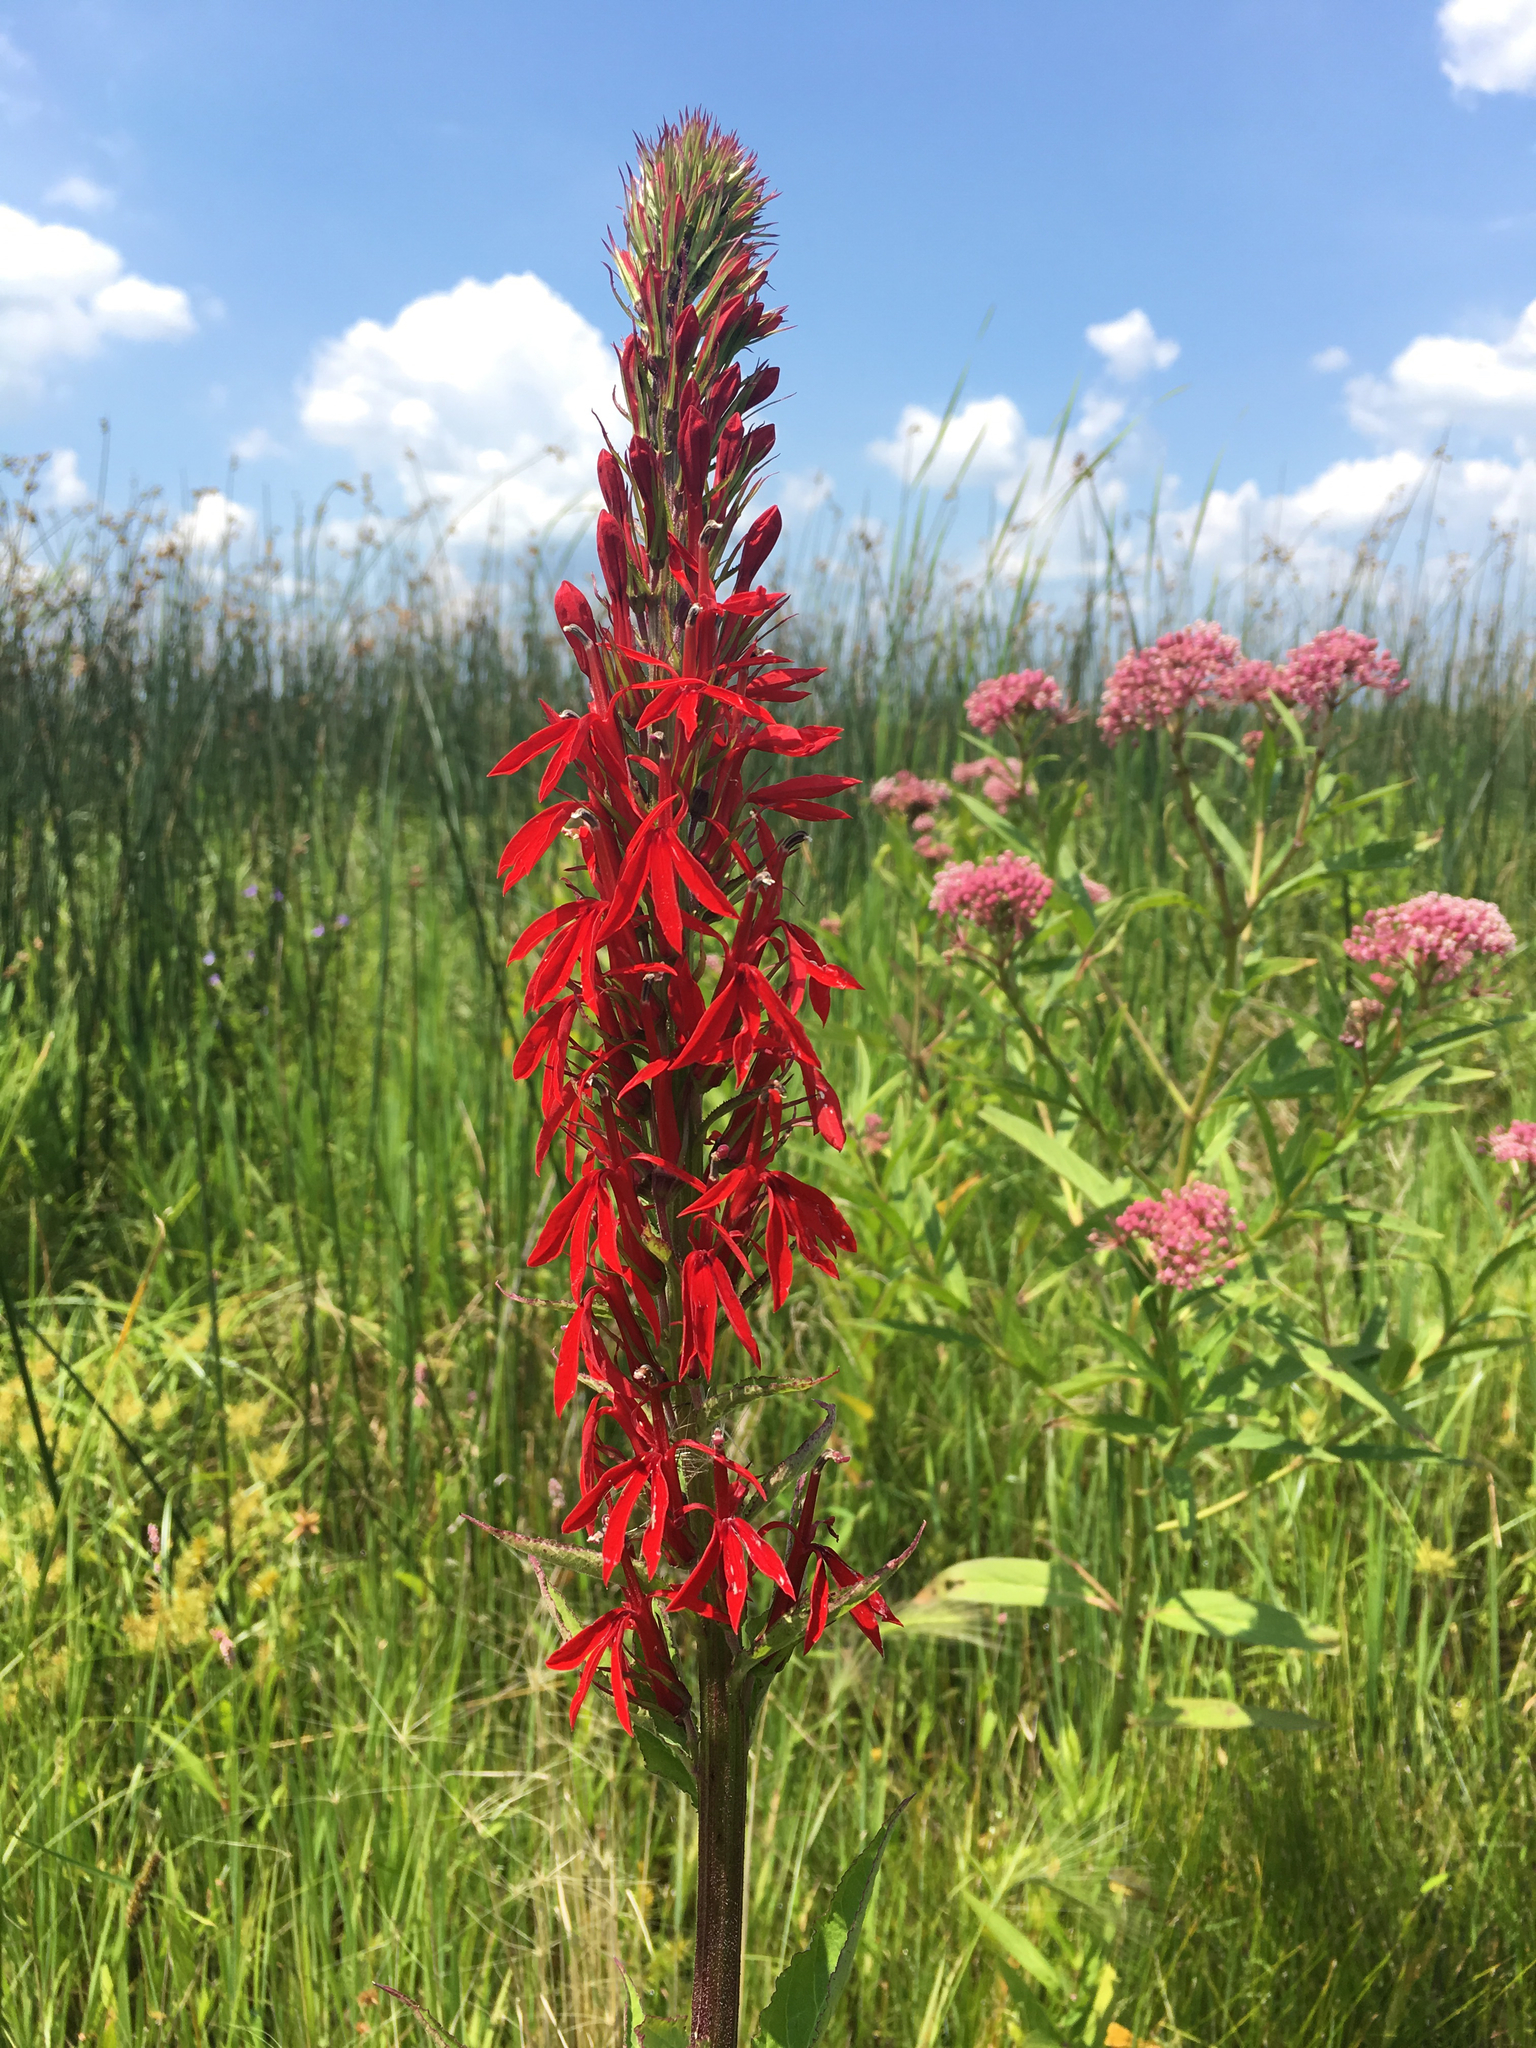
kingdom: Plantae
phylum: Tracheophyta
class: Magnoliopsida
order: Asterales
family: Campanulaceae
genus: Lobelia
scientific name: Lobelia cardinalis
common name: Cardinal flower
